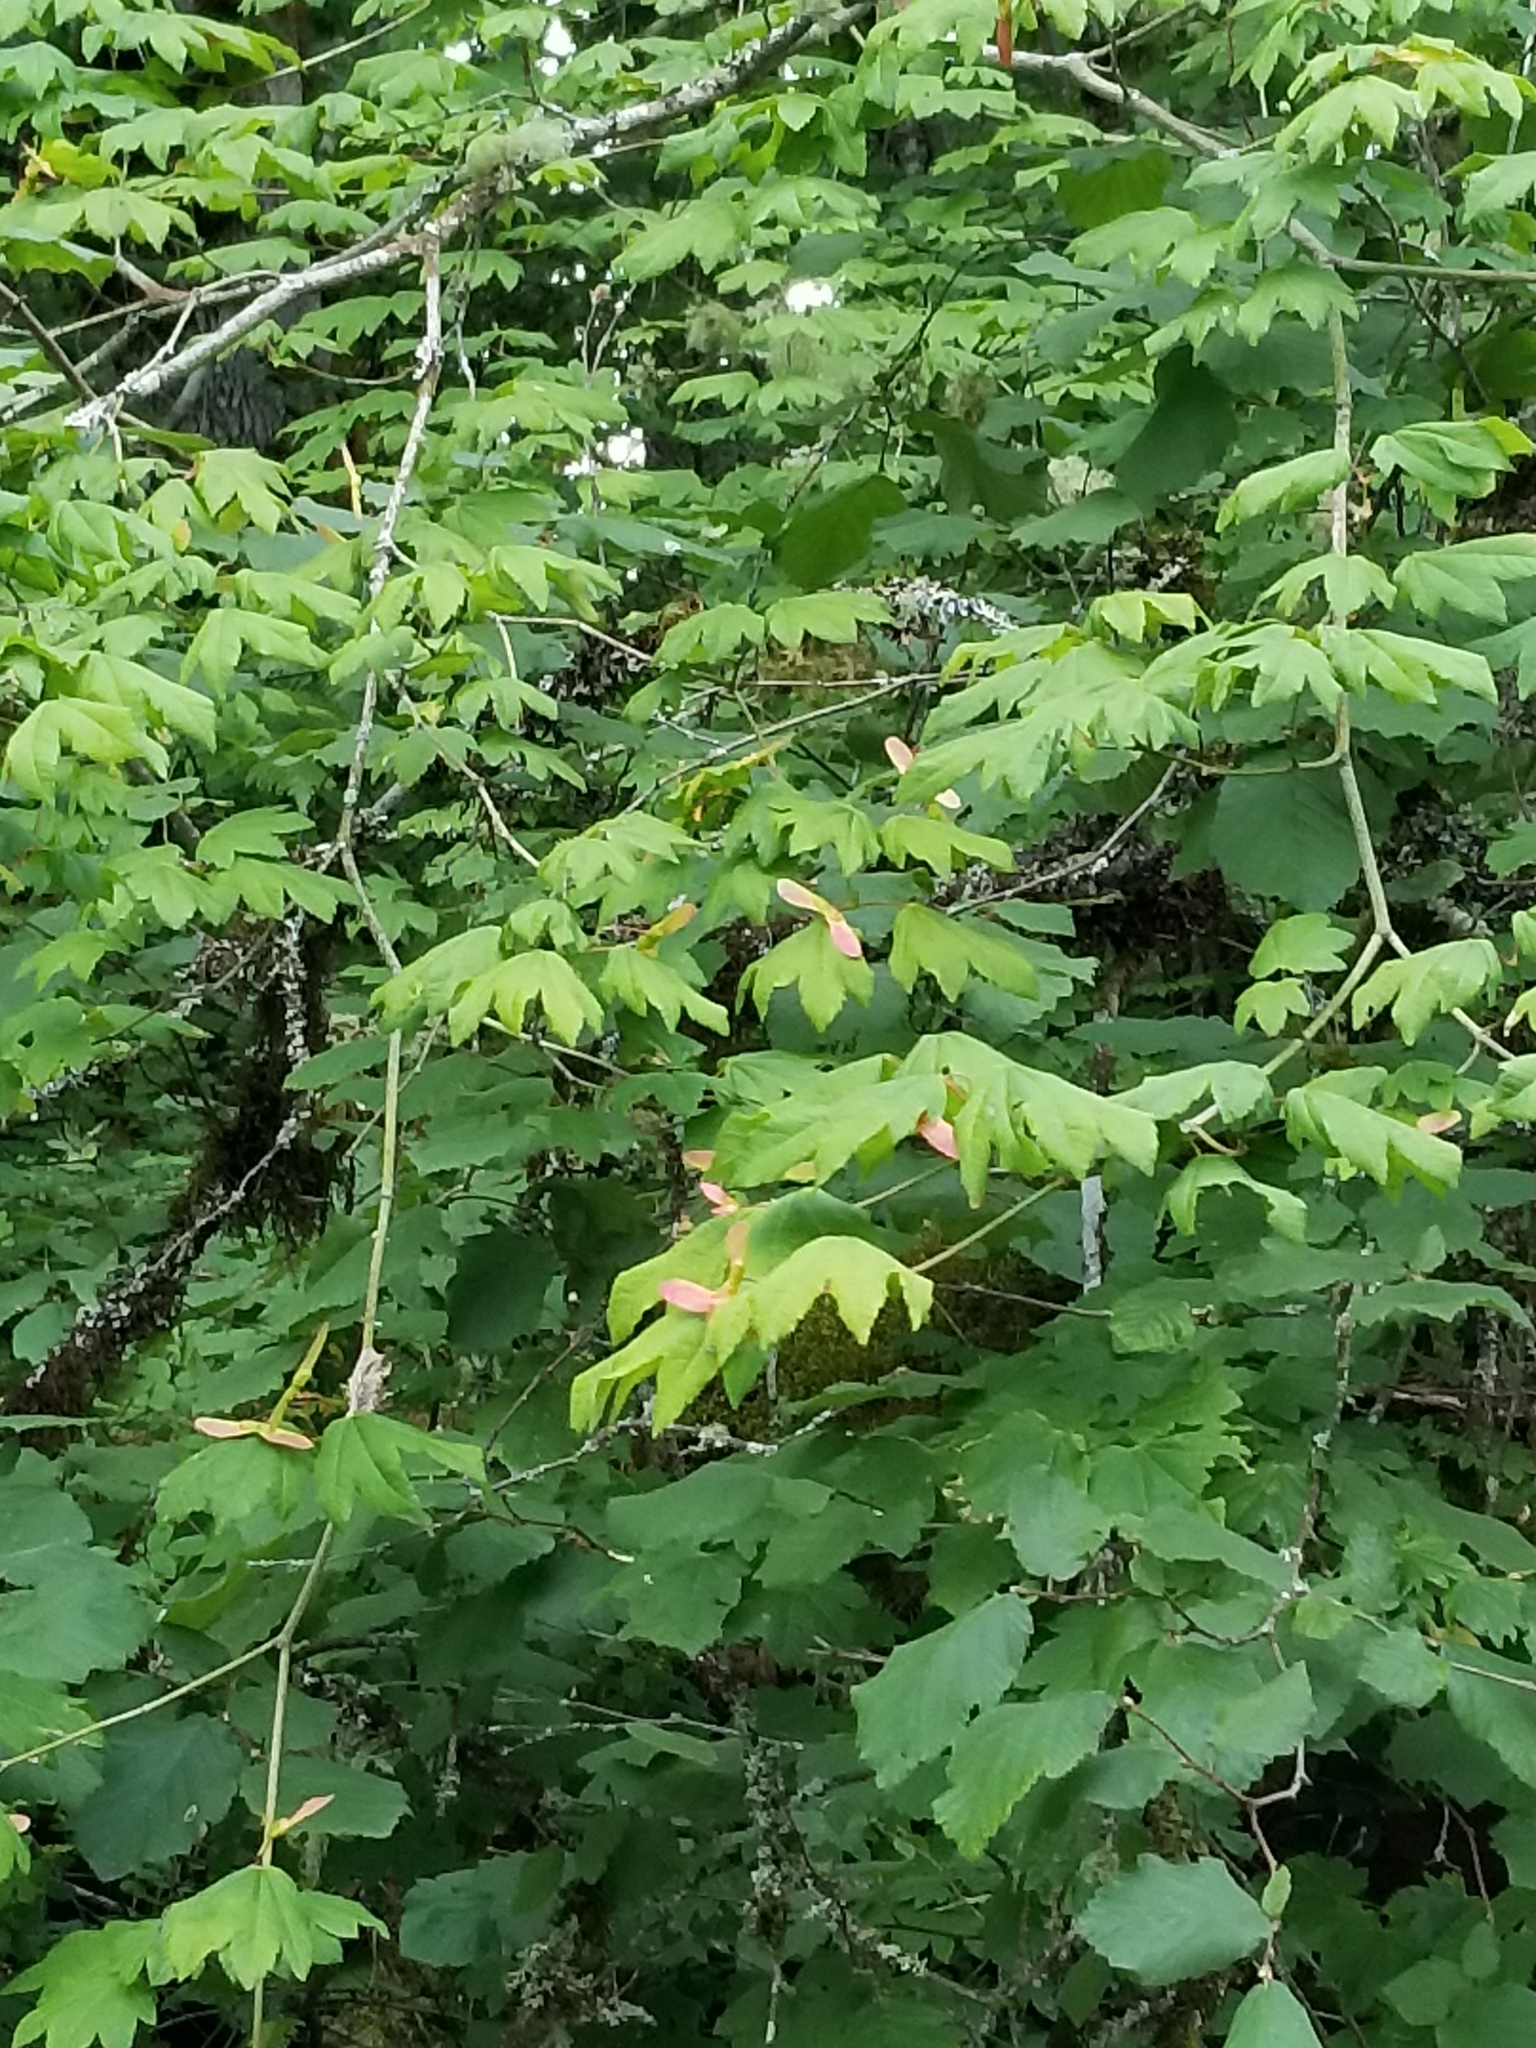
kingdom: Plantae
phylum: Tracheophyta
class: Magnoliopsida
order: Sapindales
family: Sapindaceae
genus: Acer
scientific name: Acer circinatum
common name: Vine maple
